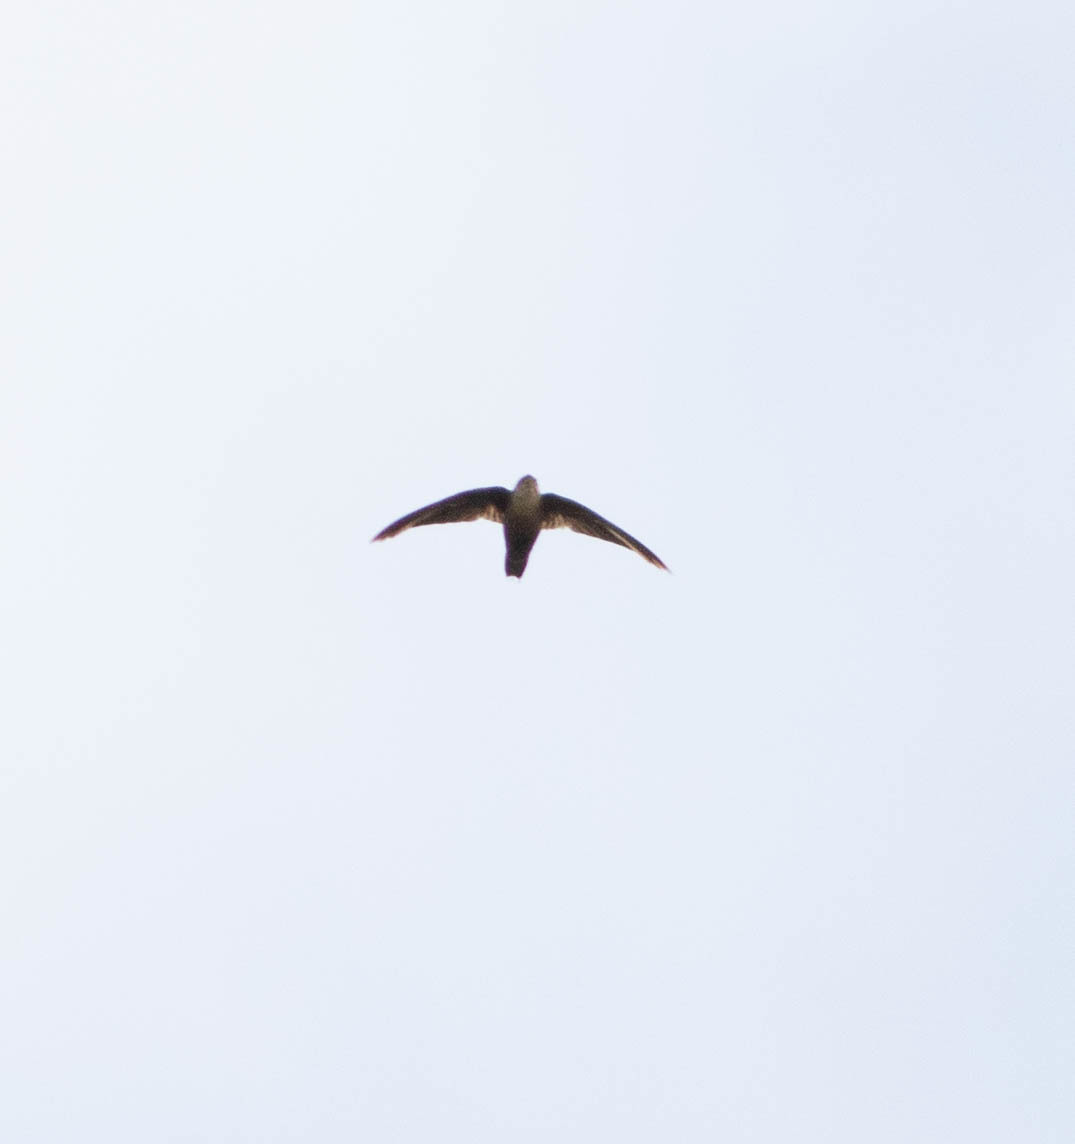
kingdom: Animalia
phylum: Chordata
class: Aves
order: Apodiformes
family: Apodidae
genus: Chaetura
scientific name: Chaetura pelagica
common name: Chimney swift
